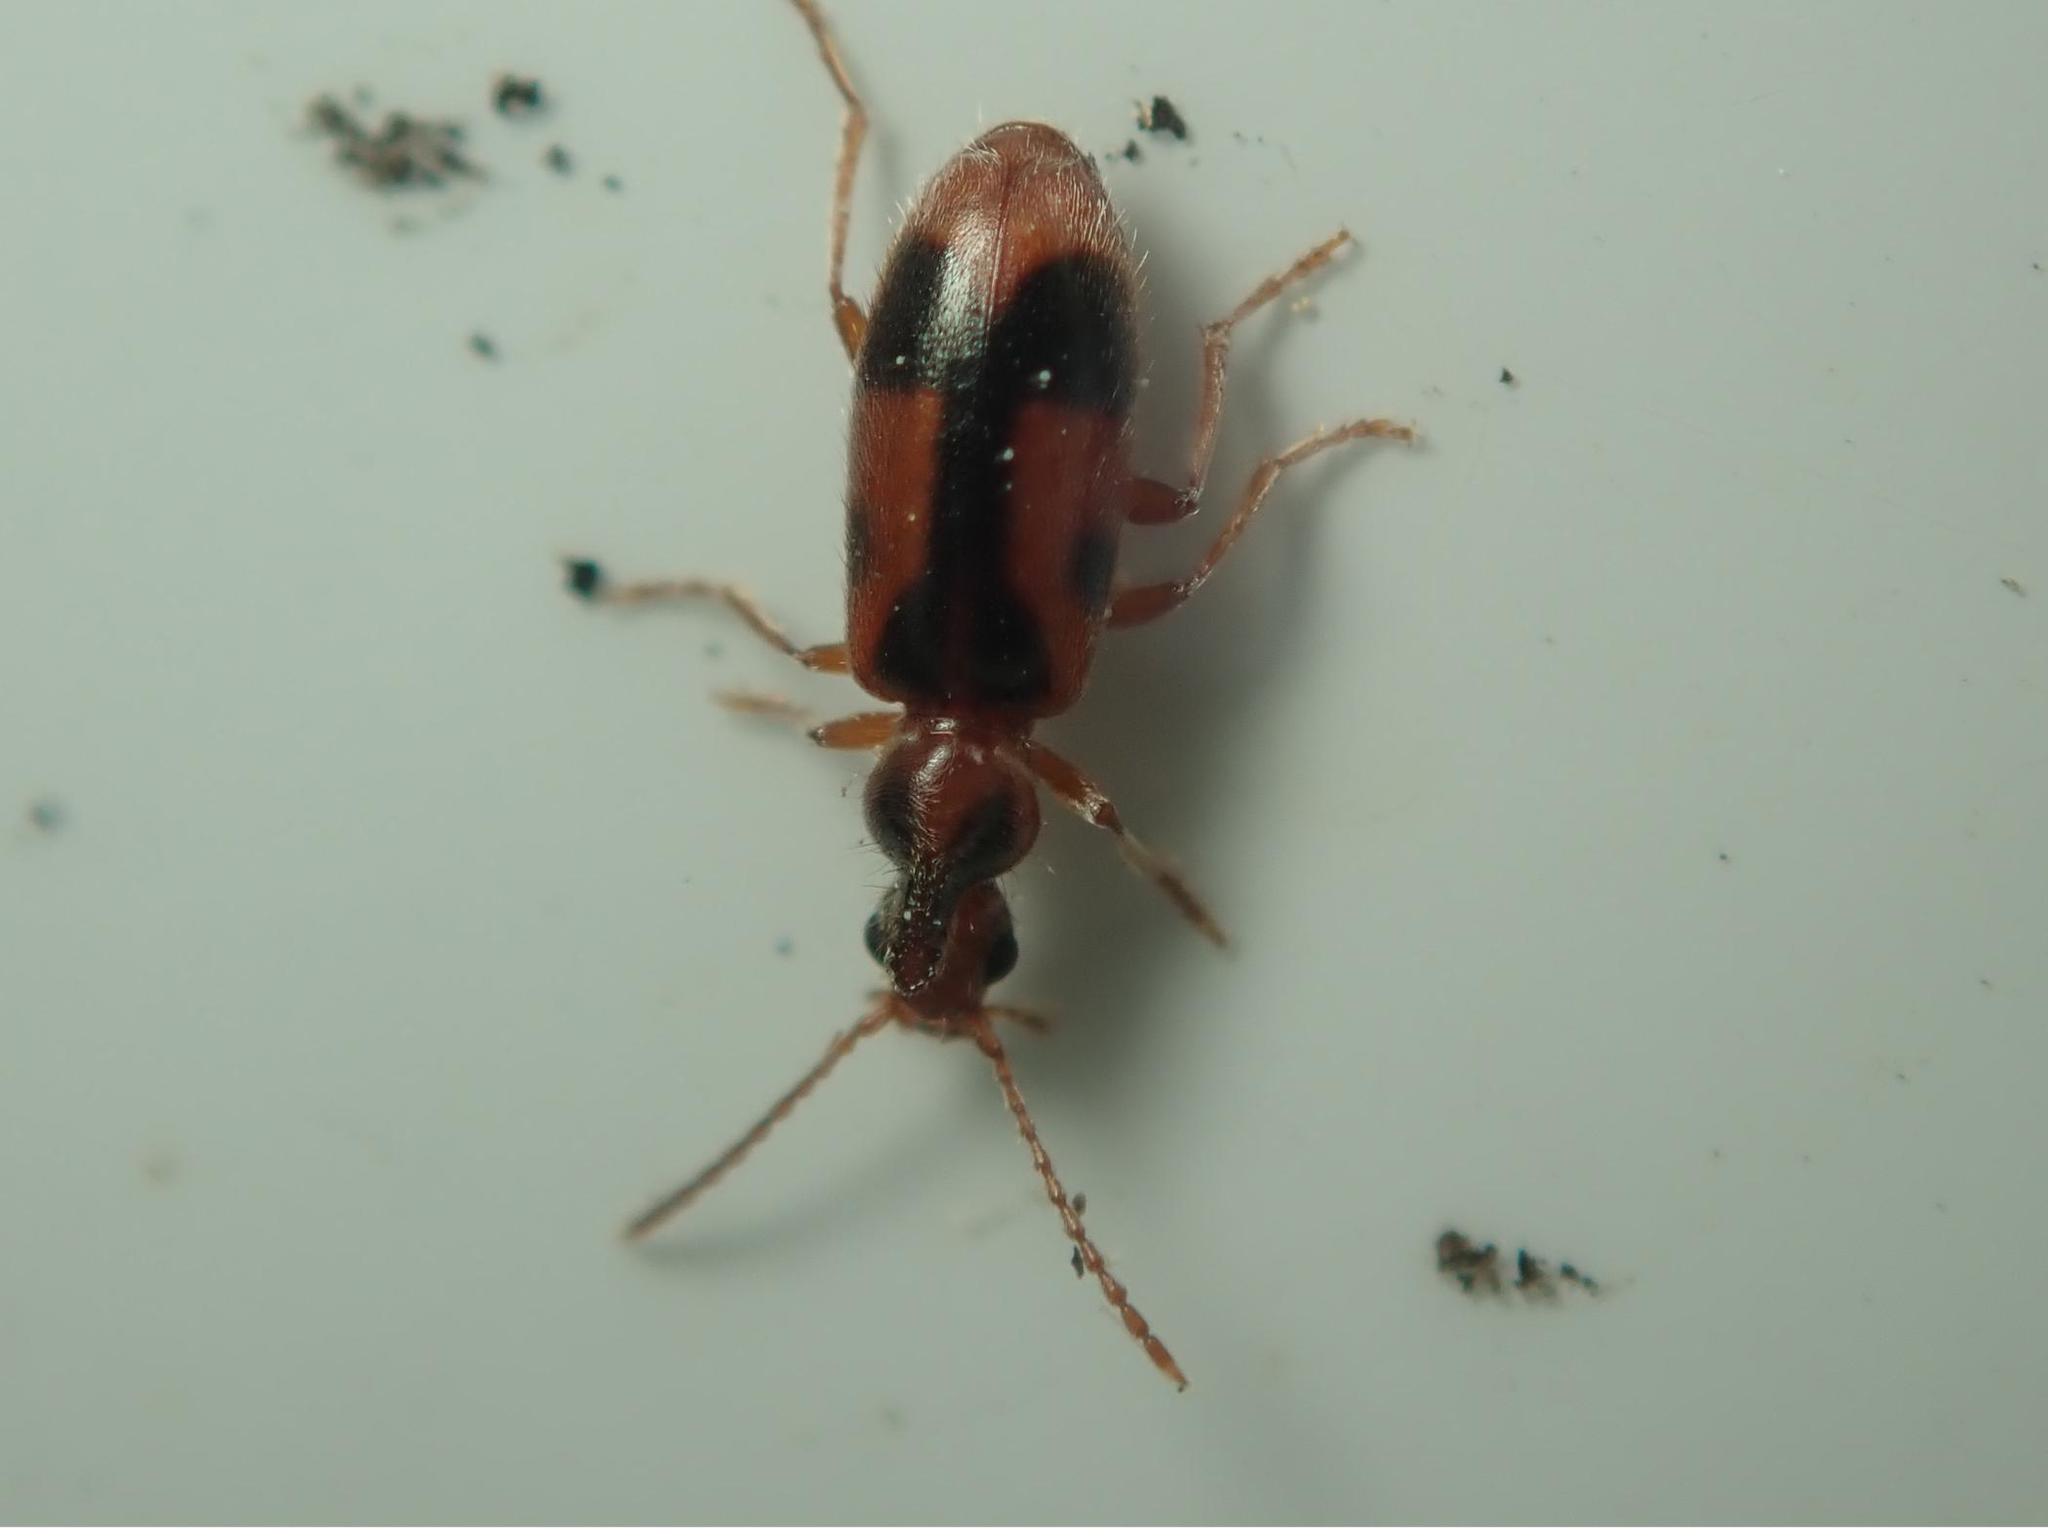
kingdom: Animalia
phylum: Arthropoda
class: Insecta
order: Coleoptera
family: Anthicidae
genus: Notoxus
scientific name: Notoxus monoceros
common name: Monoceros beetle
